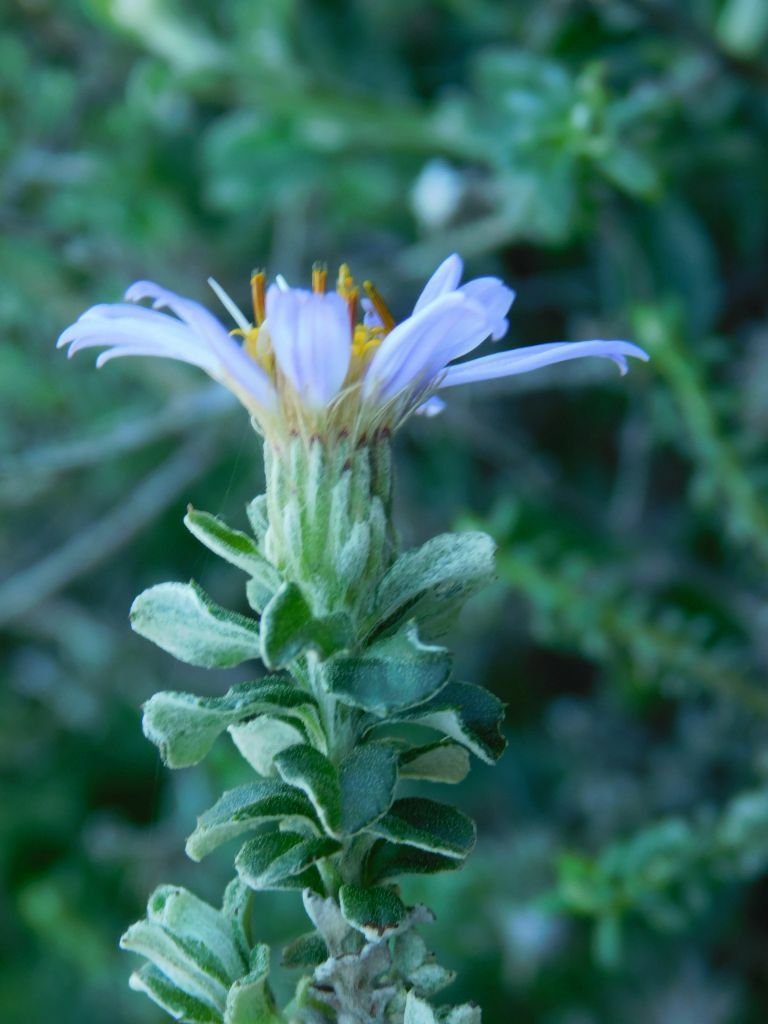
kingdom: Plantae
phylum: Tracheophyta
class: Magnoliopsida
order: Asterales
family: Asteraceae
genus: Printzia
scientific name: Printzia polifolia
